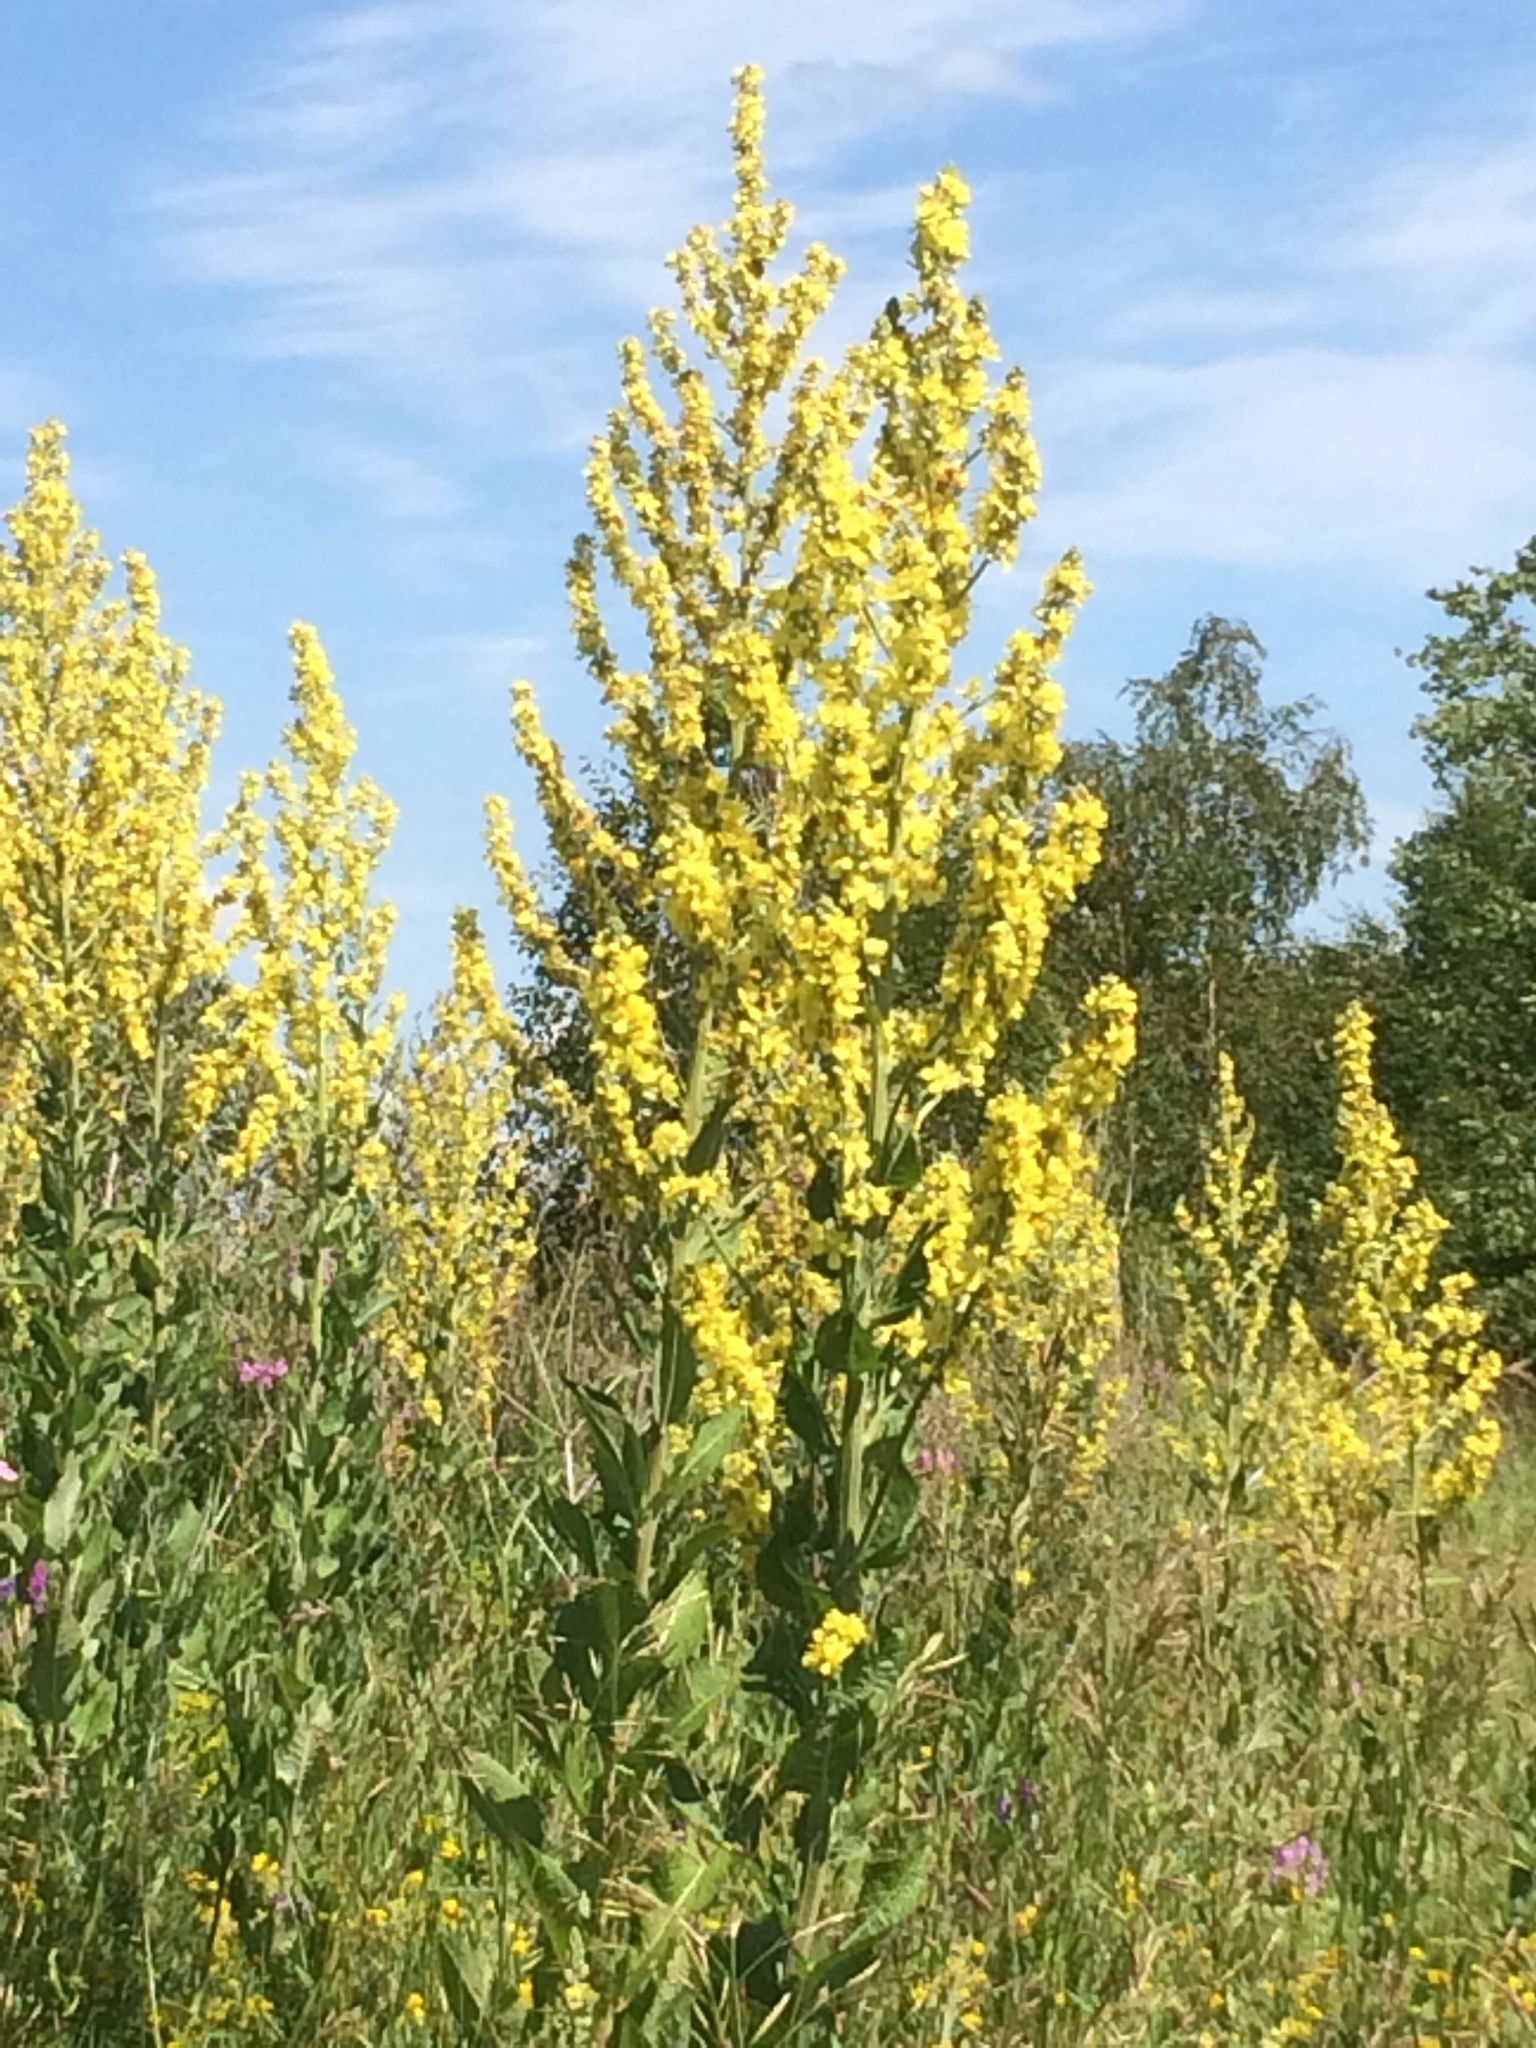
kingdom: Plantae
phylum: Tracheophyta
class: Magnoliopsida
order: Lamiales
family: Scrophulariaceae
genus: Verbascum
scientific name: Verbascum lychnitis
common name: White mullein
